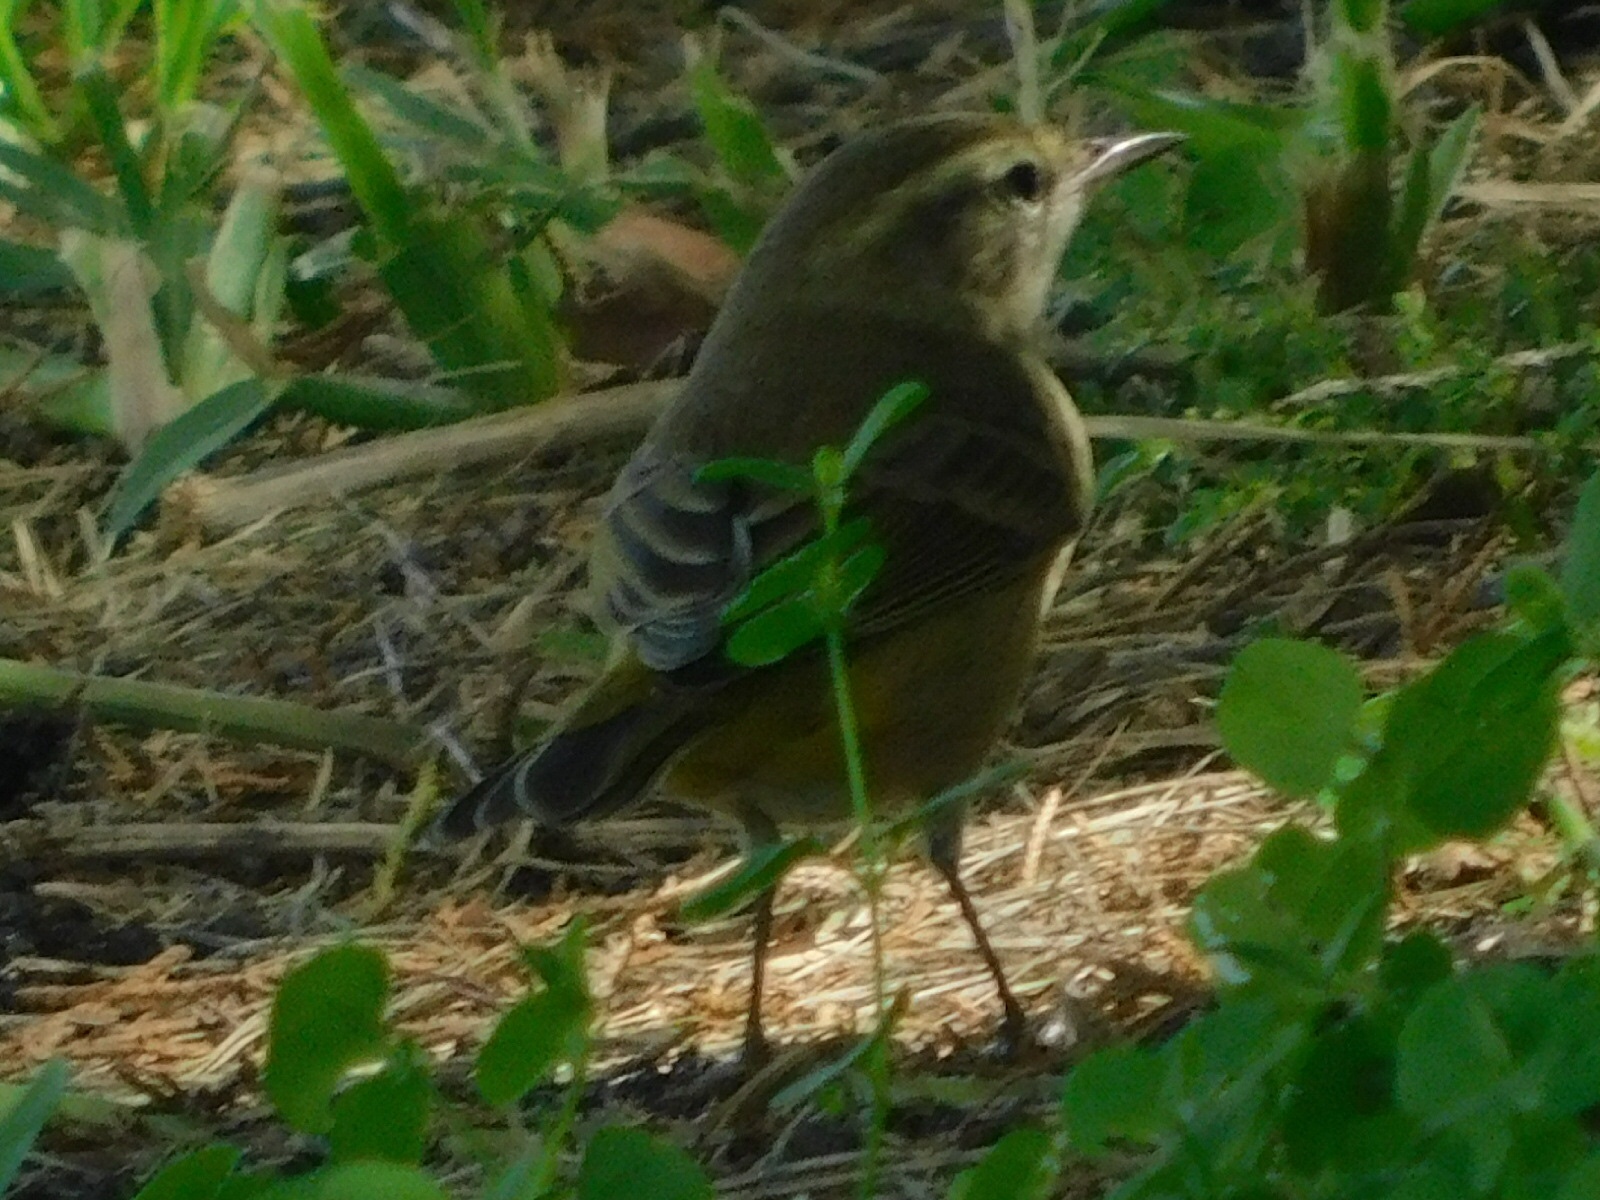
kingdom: Animalia
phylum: Chordata
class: Aves
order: Passeriformes
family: Parulidae
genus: Setophaga
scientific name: Setophaga palmarum
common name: Palm warbler
